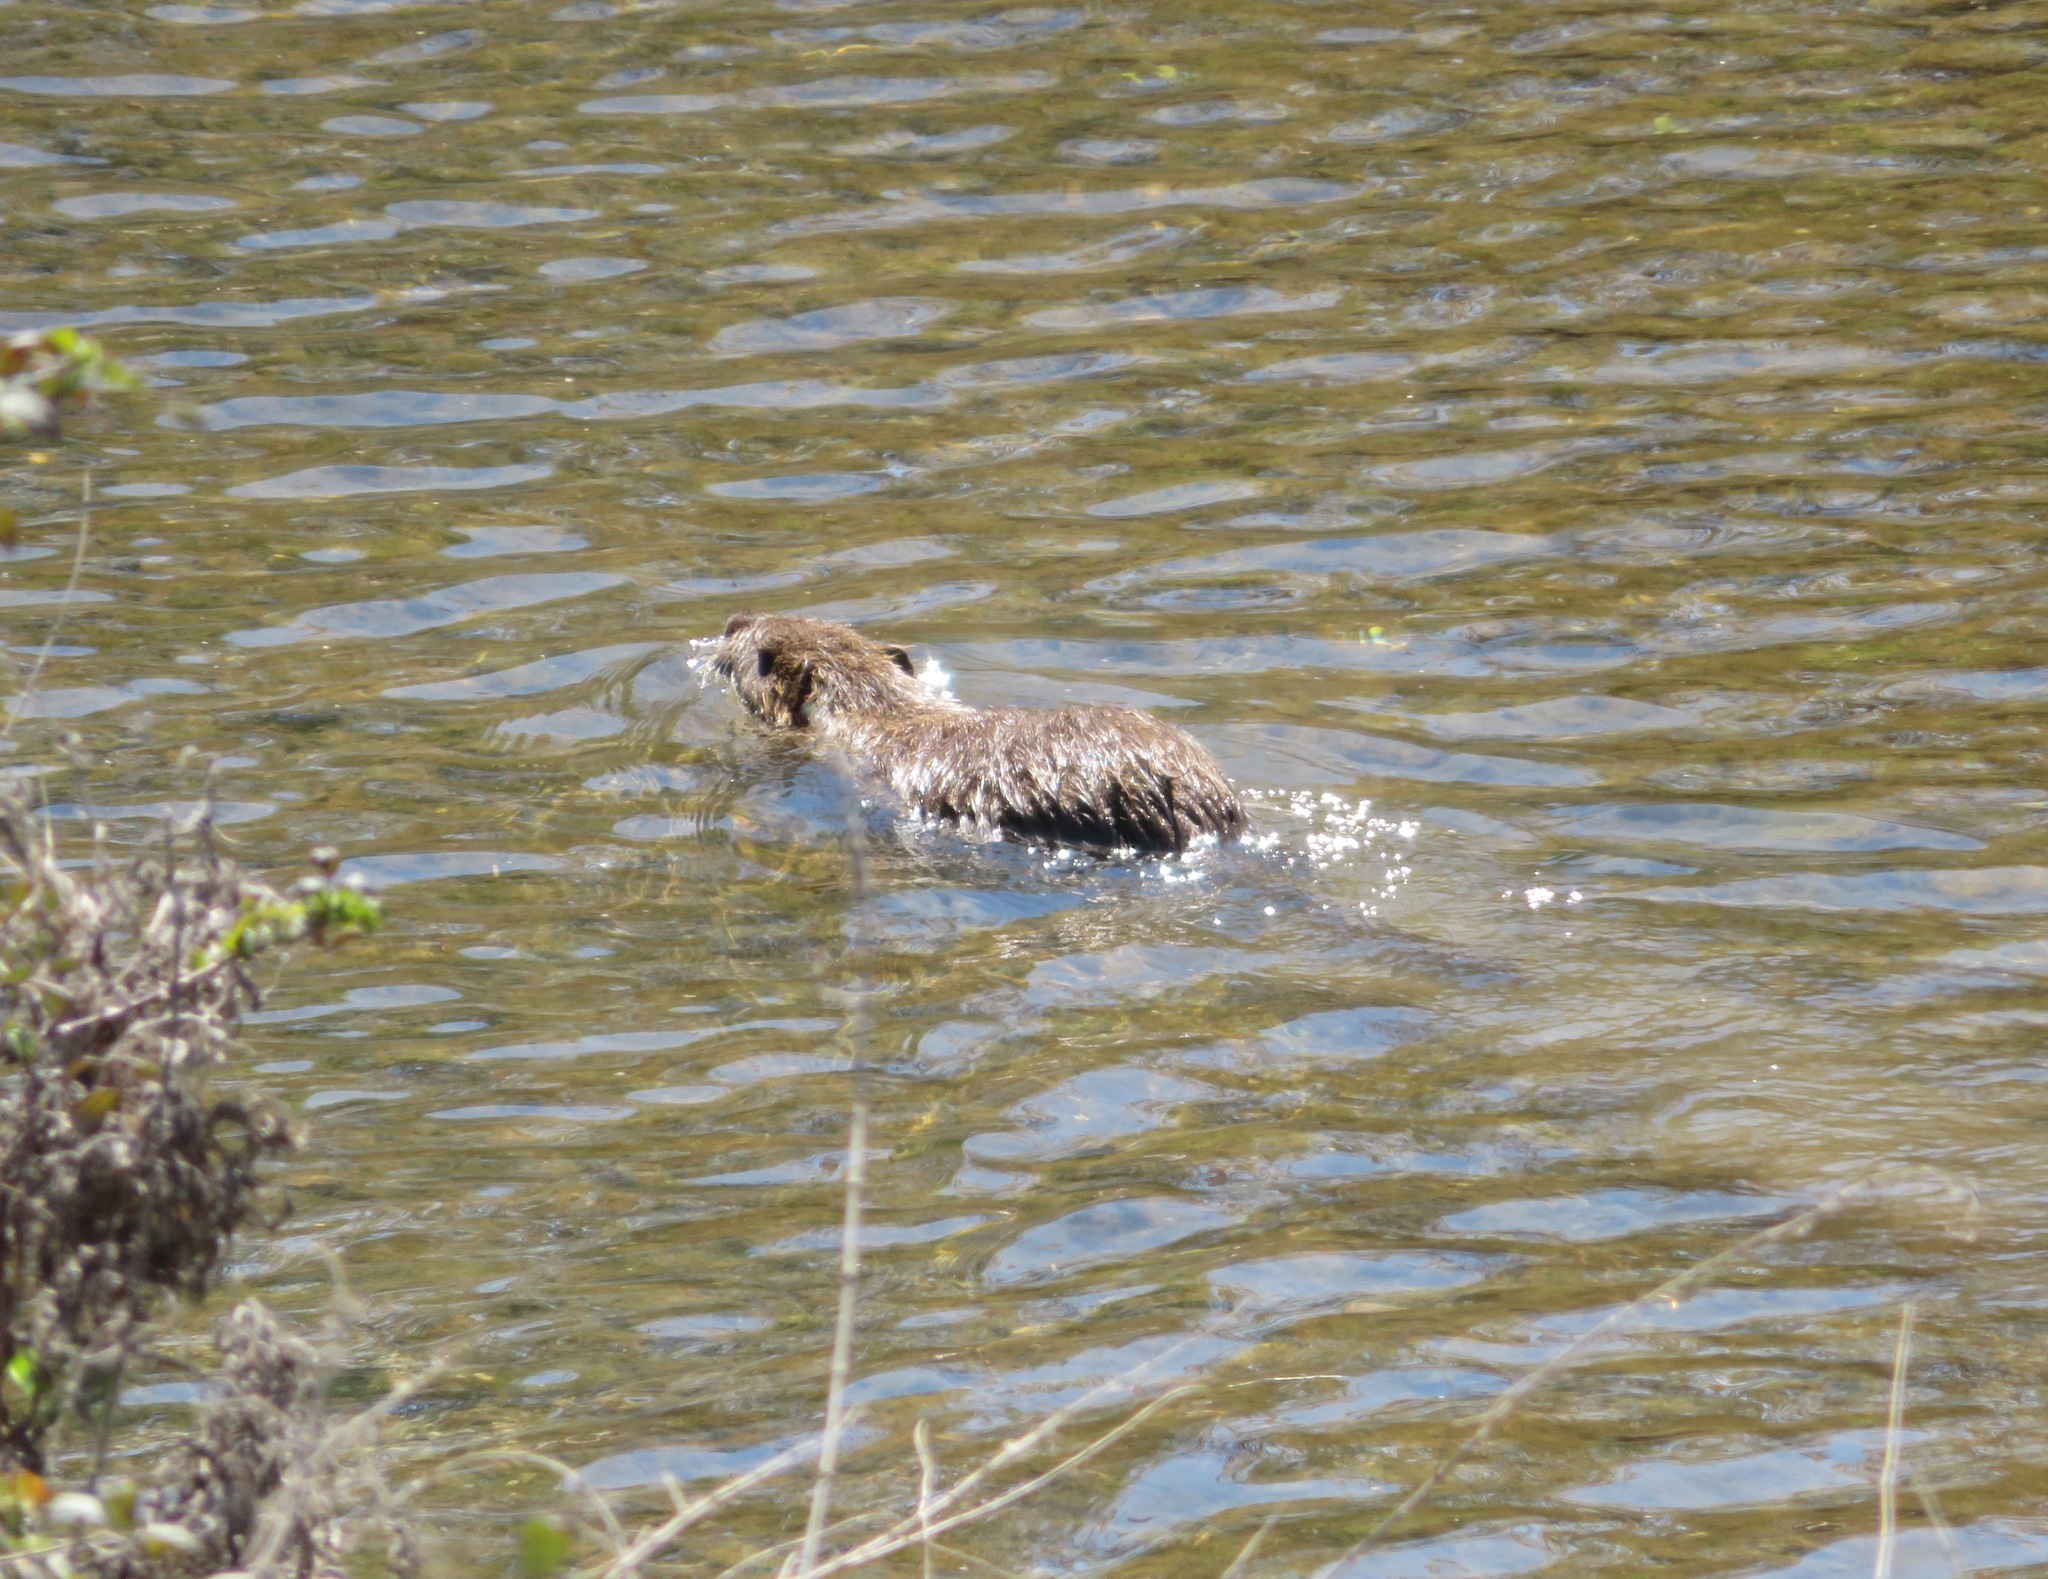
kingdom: Animalia
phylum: Chordata
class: Mammalia
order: Rodentia
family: Myocastoridae
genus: Myocastor
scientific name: Myocastor coypus
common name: Coypu
